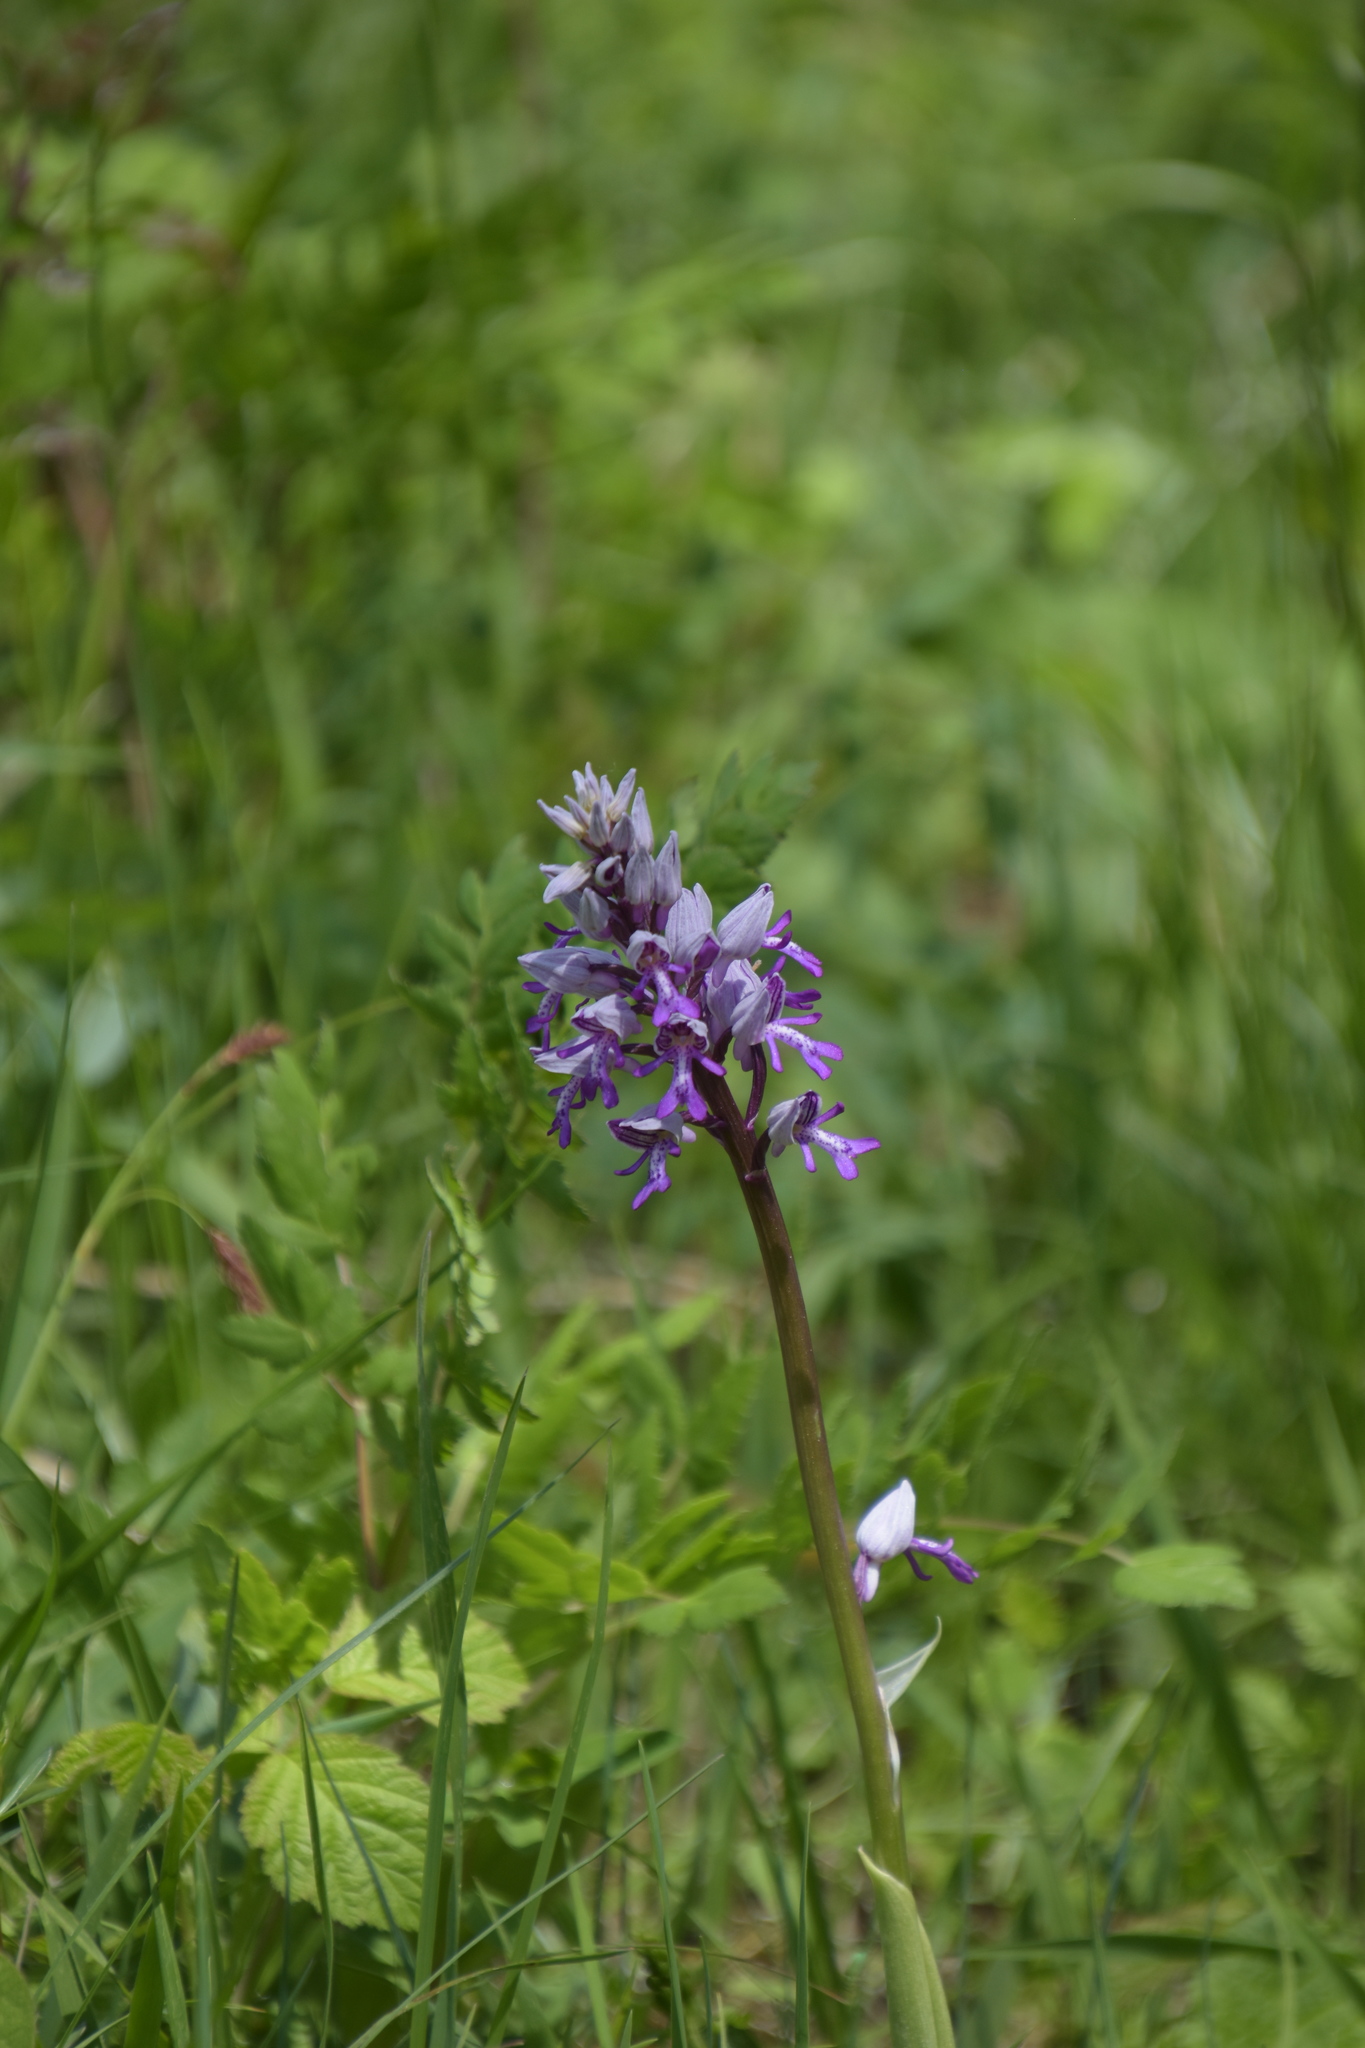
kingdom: Plantae
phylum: Tracheophyta
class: Liliopsida
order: Asparagales
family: Orchidaceae
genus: Orchis
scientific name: Orchis militaris
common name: Military orchid
